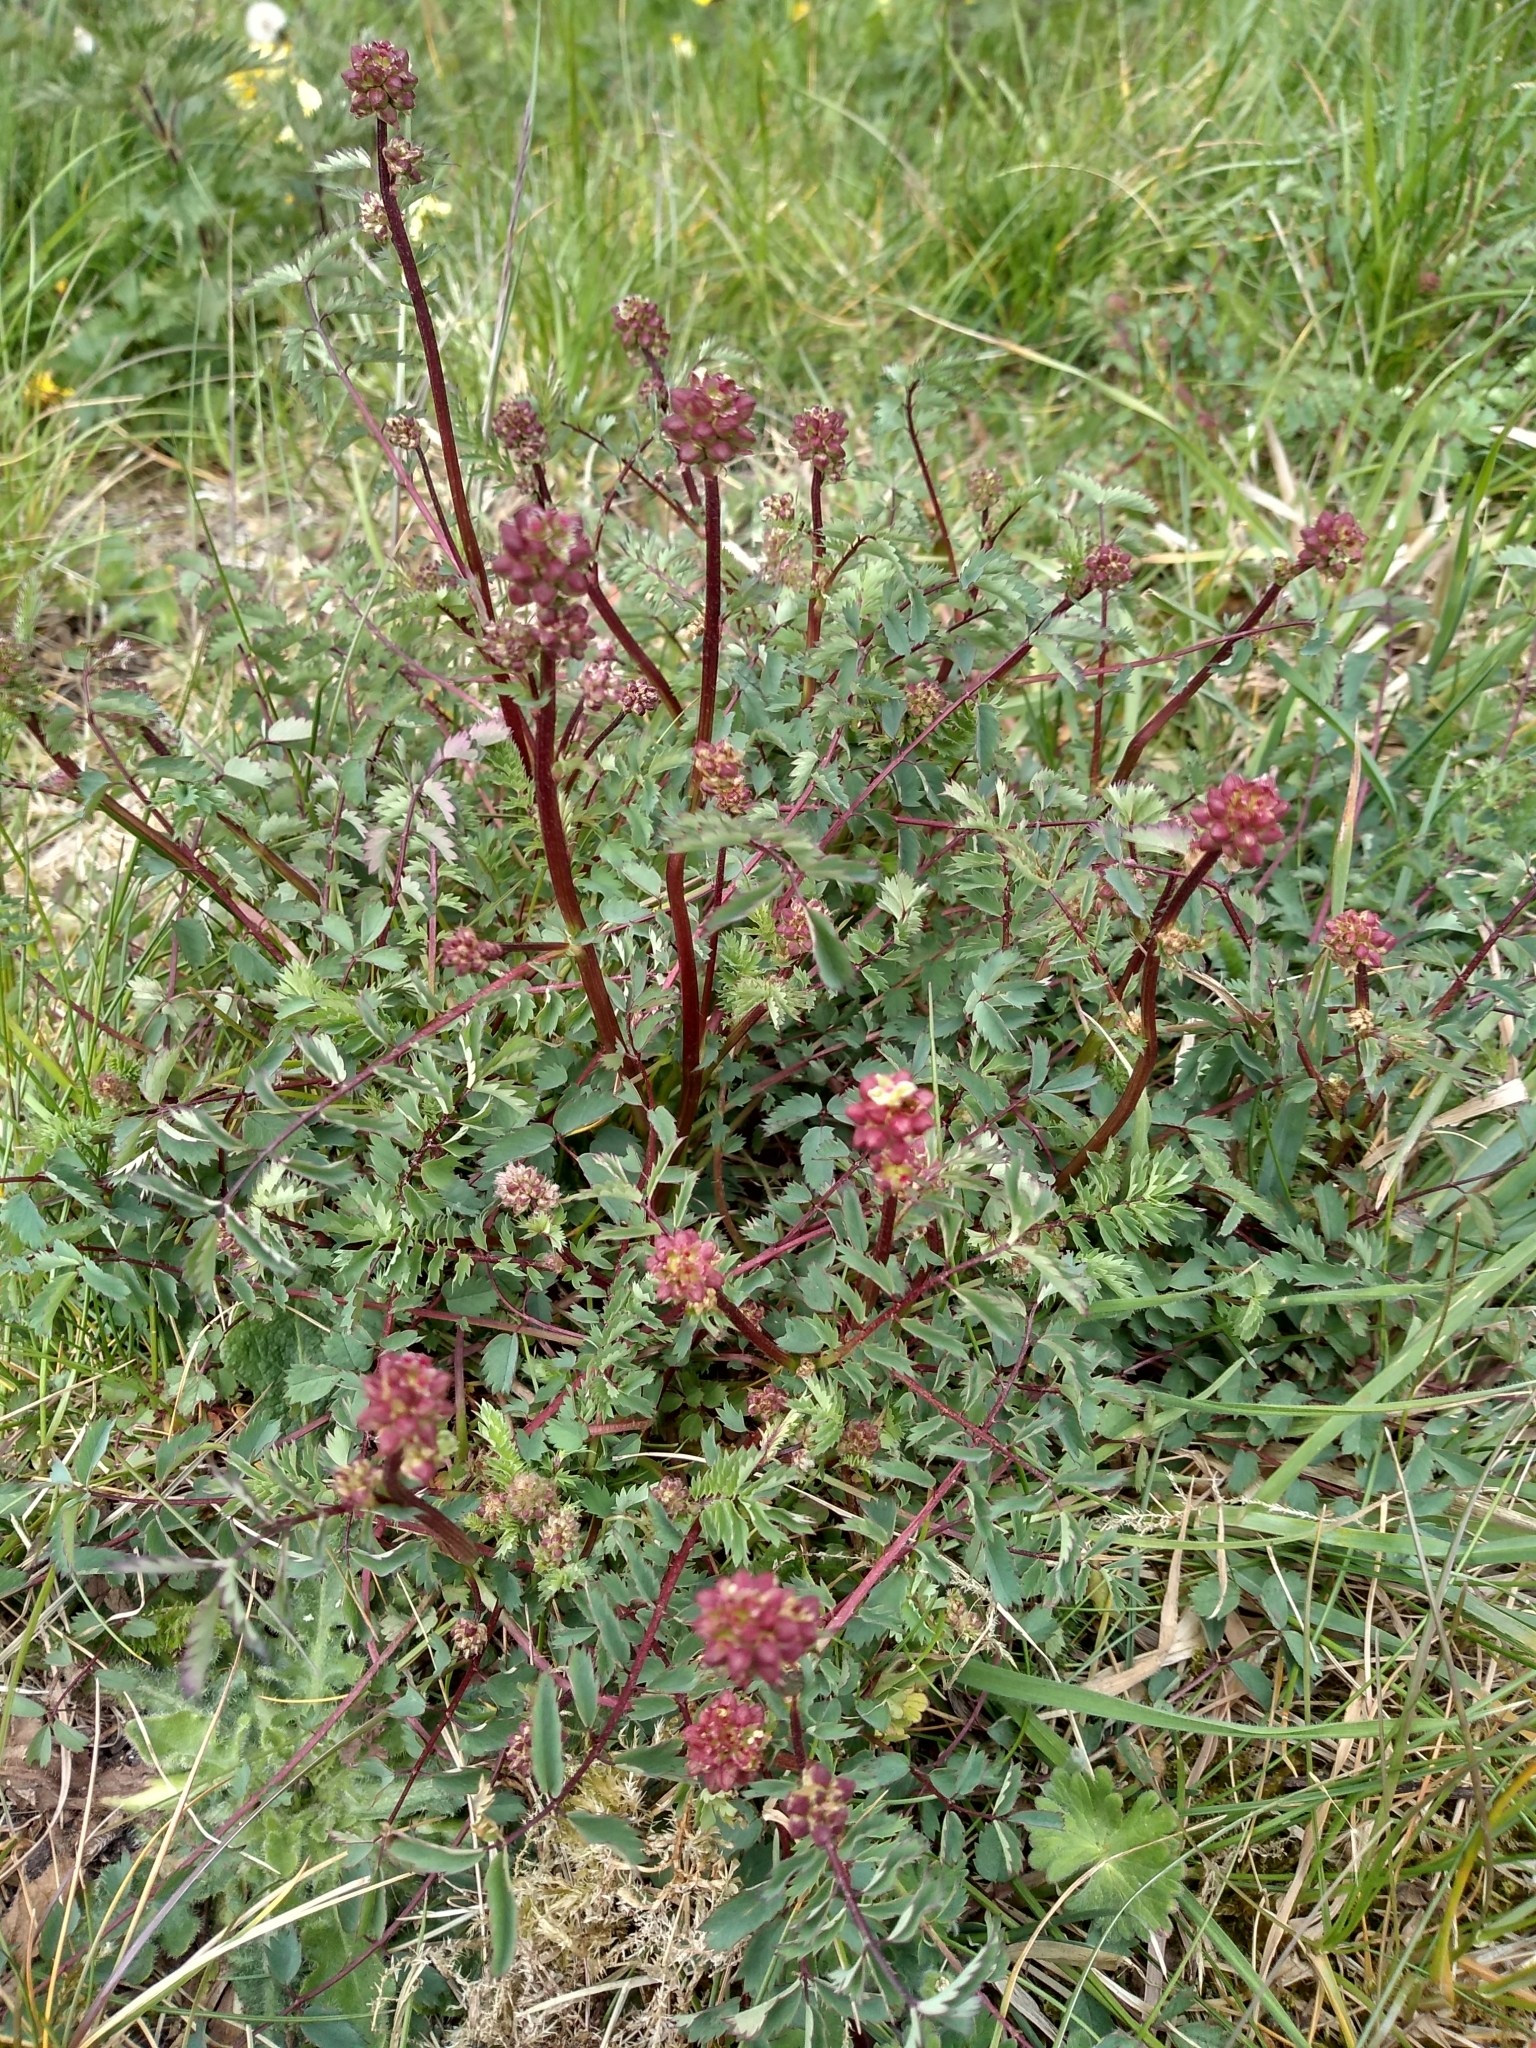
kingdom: Plantae
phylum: Tracheophyta
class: Magnoliopsida
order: Rosales
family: Rosaceae
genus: Poterium
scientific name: Poterium sanguisorba
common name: Salad burnet
